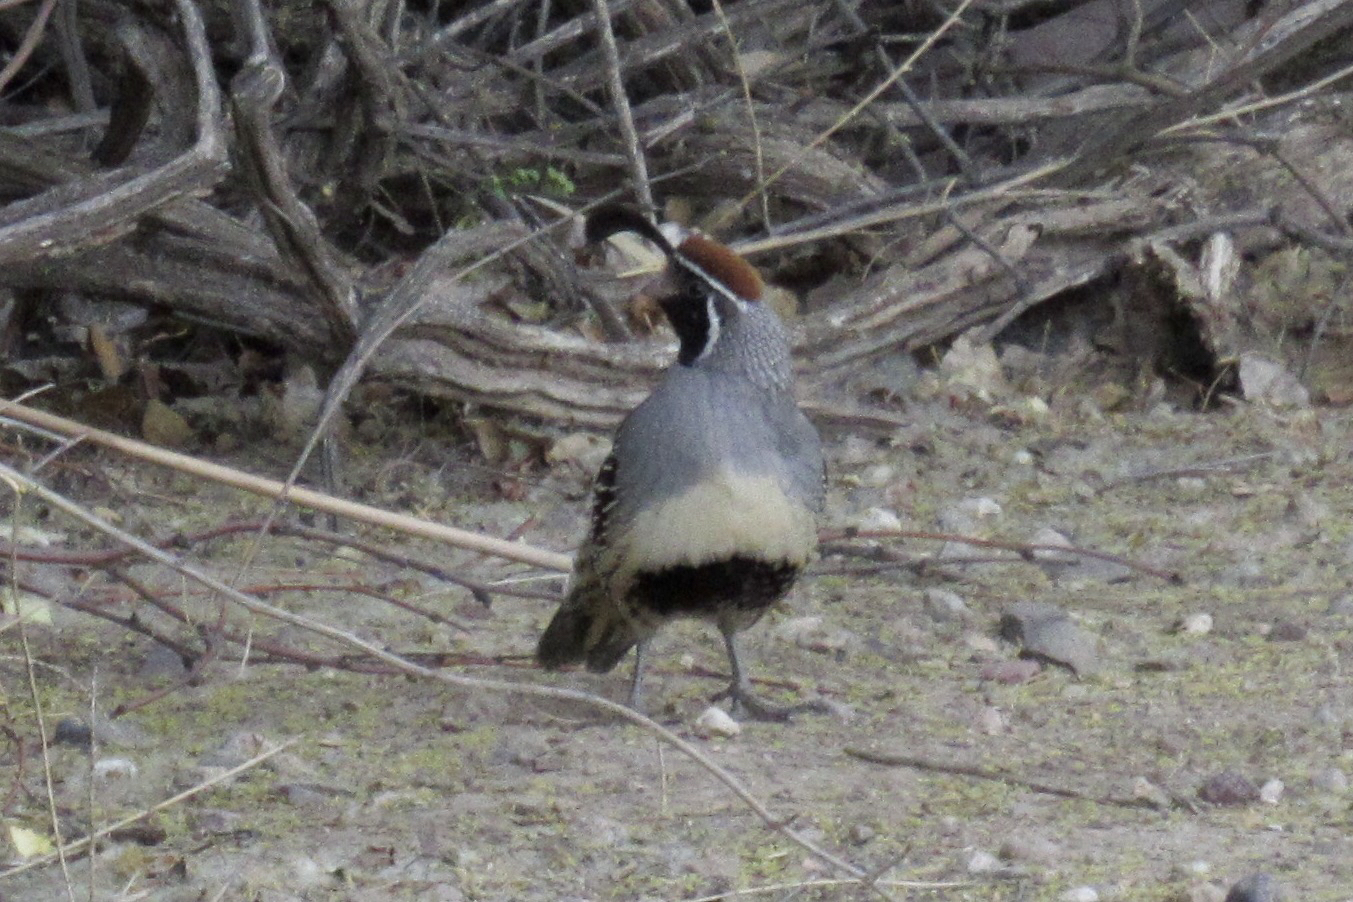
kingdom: Animalia
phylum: Chordata
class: Aves
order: Galliformes
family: Odontophoridae
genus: Callipepla
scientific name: Callipepla gambelii
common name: Gambel's quail
